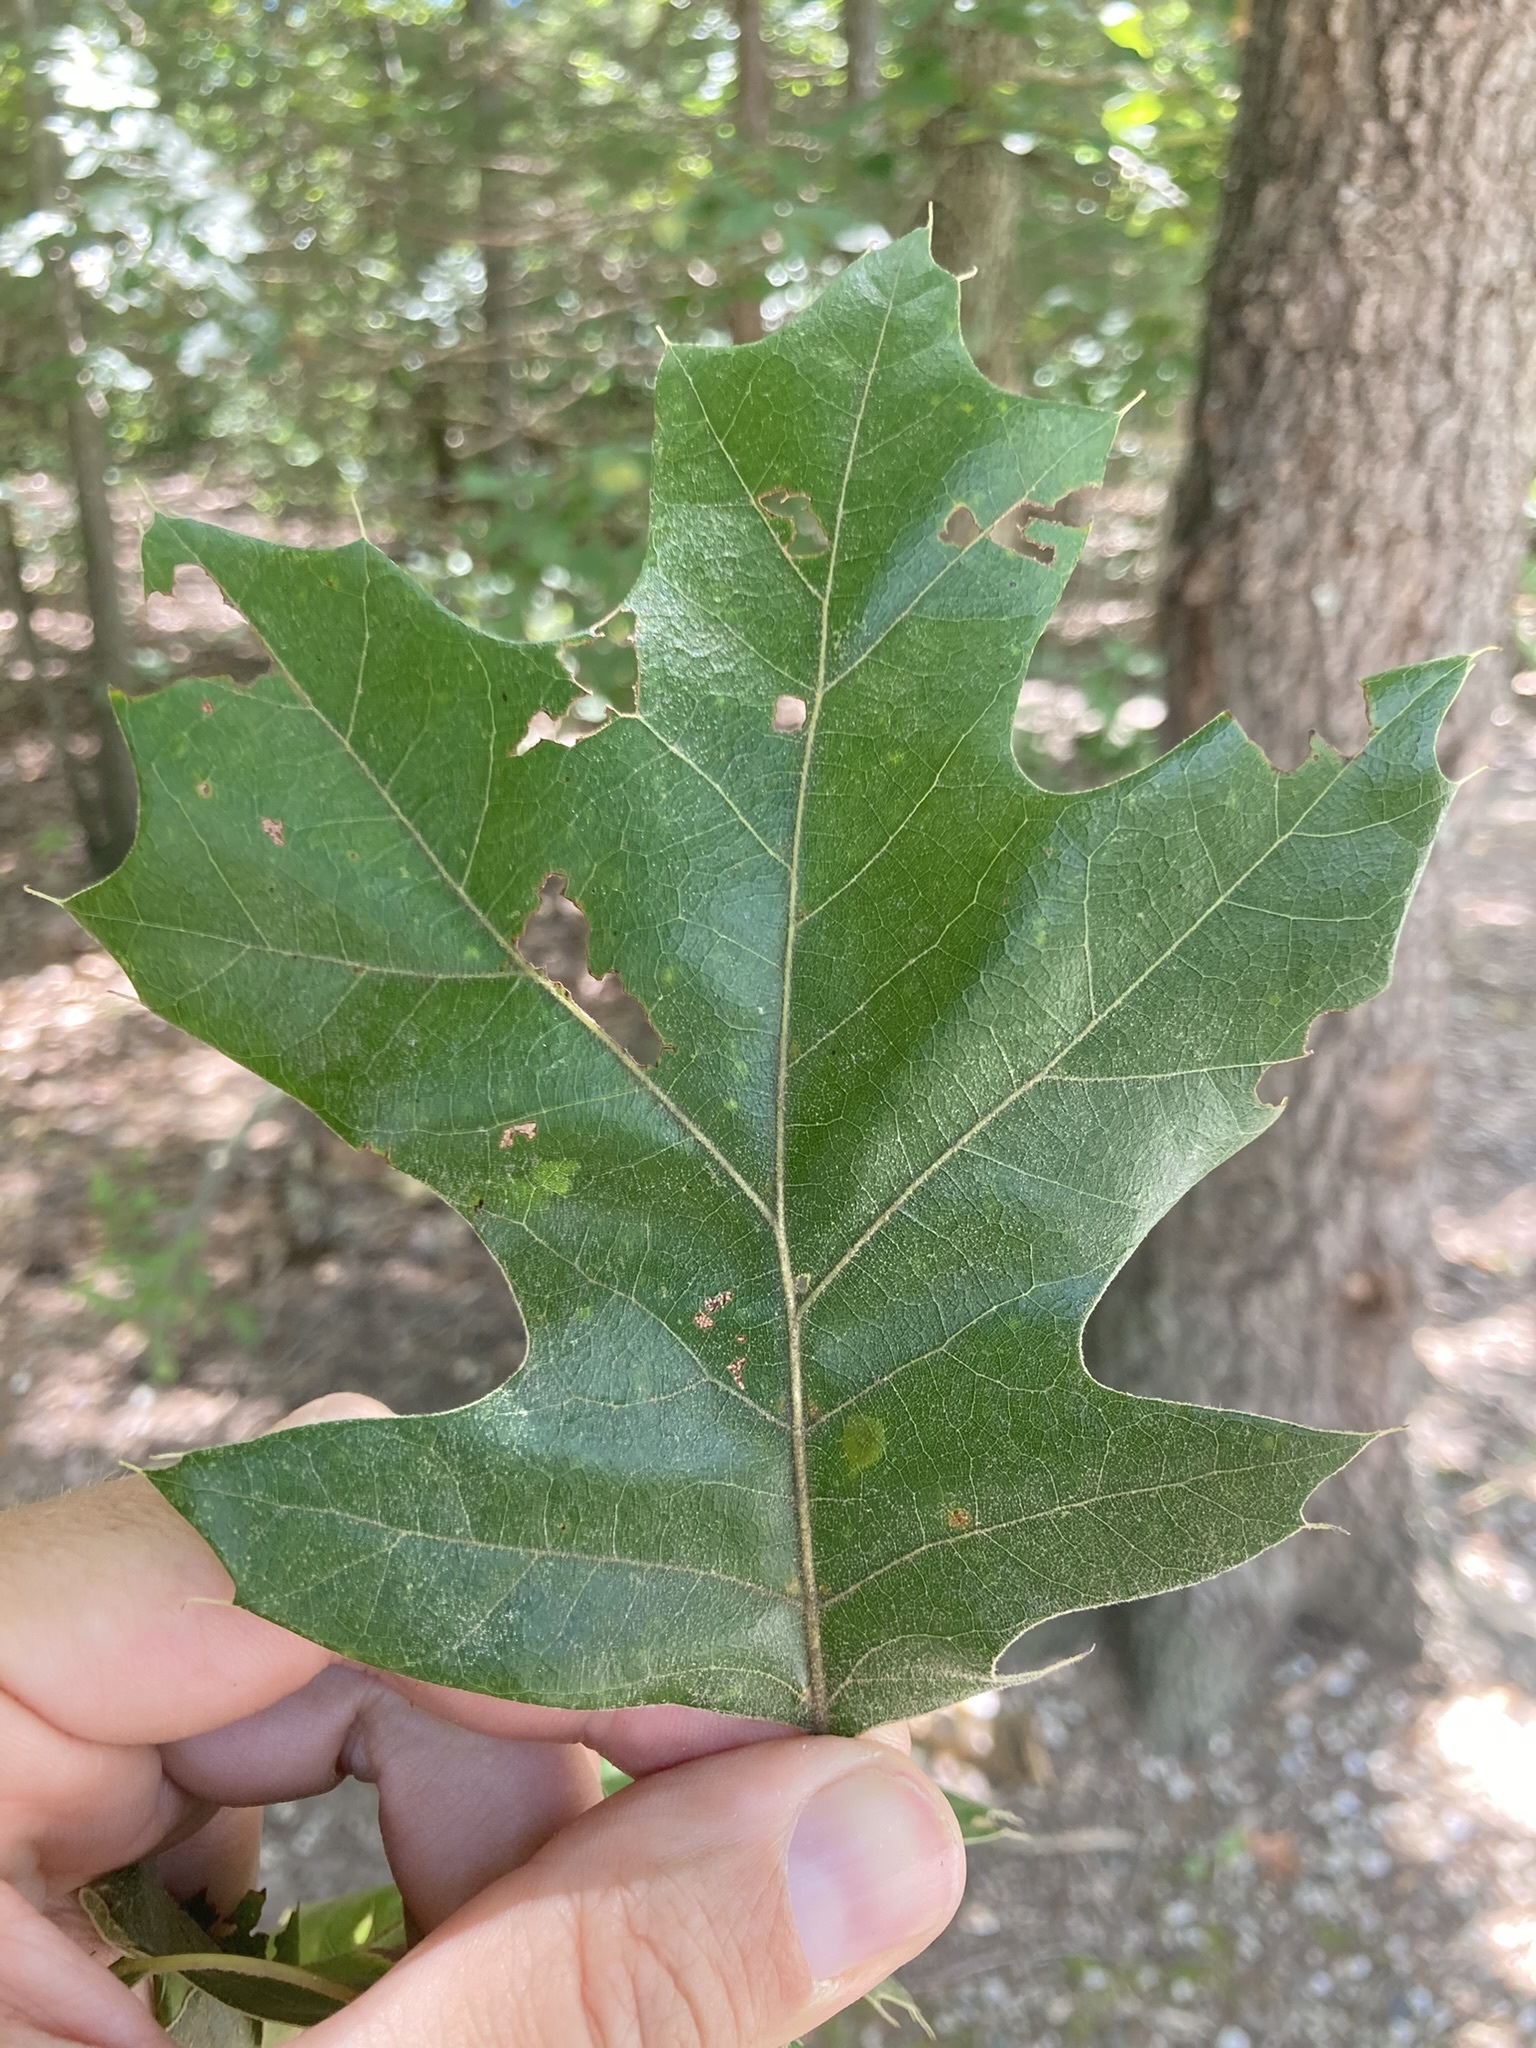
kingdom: Plantae
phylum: Tracheophyta
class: Magnoliopsida
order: Fagales
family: Fagaceae
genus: Quercus
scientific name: Quercus velutina
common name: Black oak
